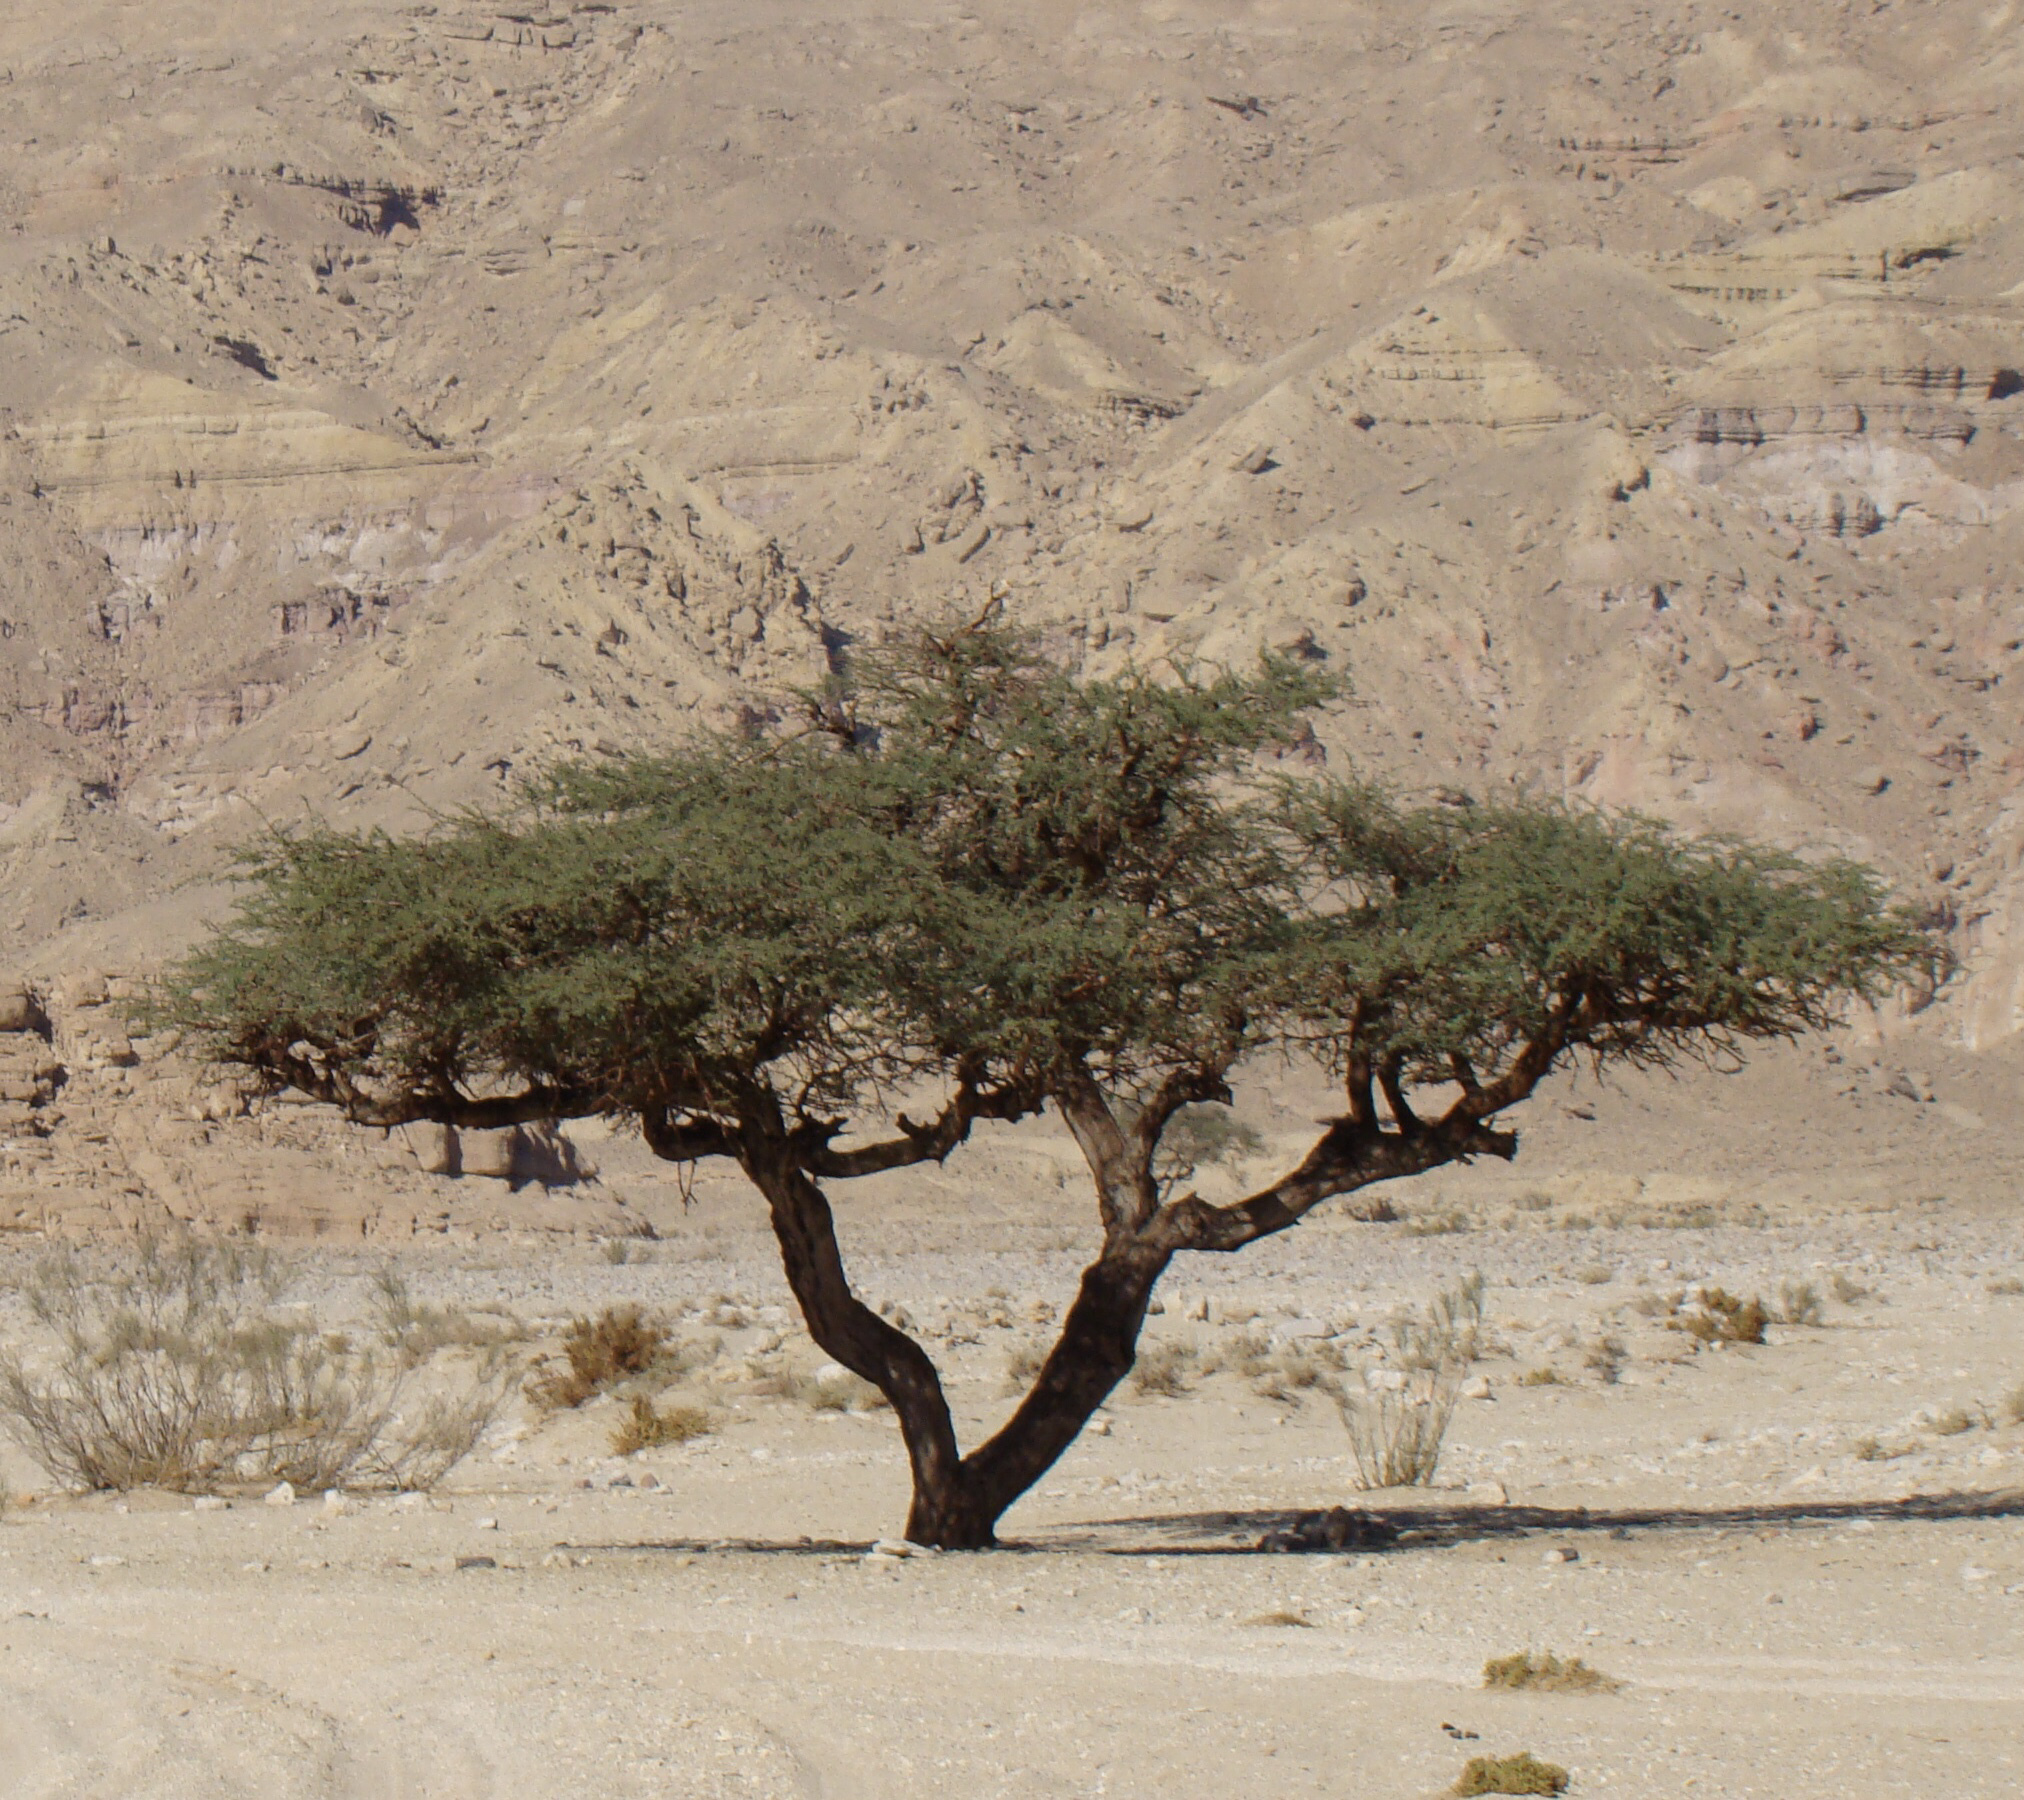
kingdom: Plantae
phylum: Tracheophyta
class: Magnoliopsida
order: Fabales
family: Fabaceae
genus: Vachellia
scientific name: Vachellia tortilis
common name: Umbrella thorn acacia
